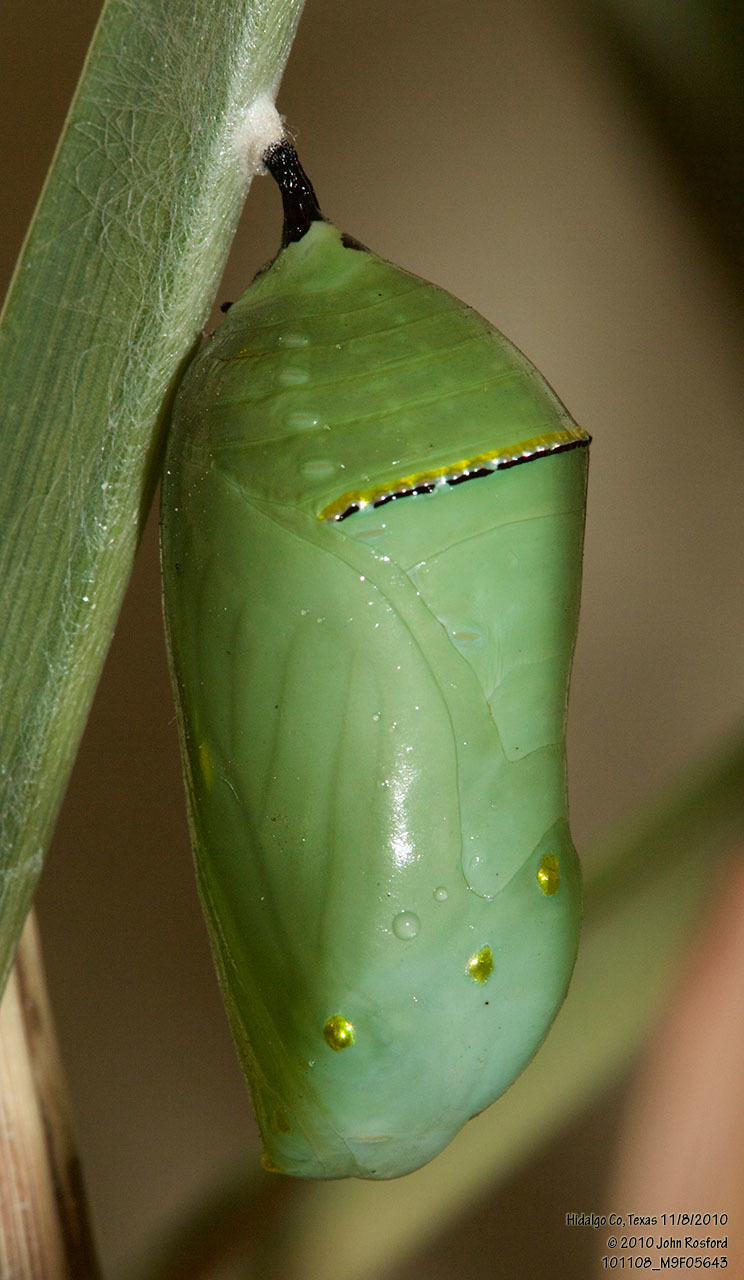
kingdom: Animalia
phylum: Arthropoda
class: Insecta
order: Lepidoptera
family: Nymphalidae
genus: Danaus
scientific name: Danaus plexippus
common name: Monarch
